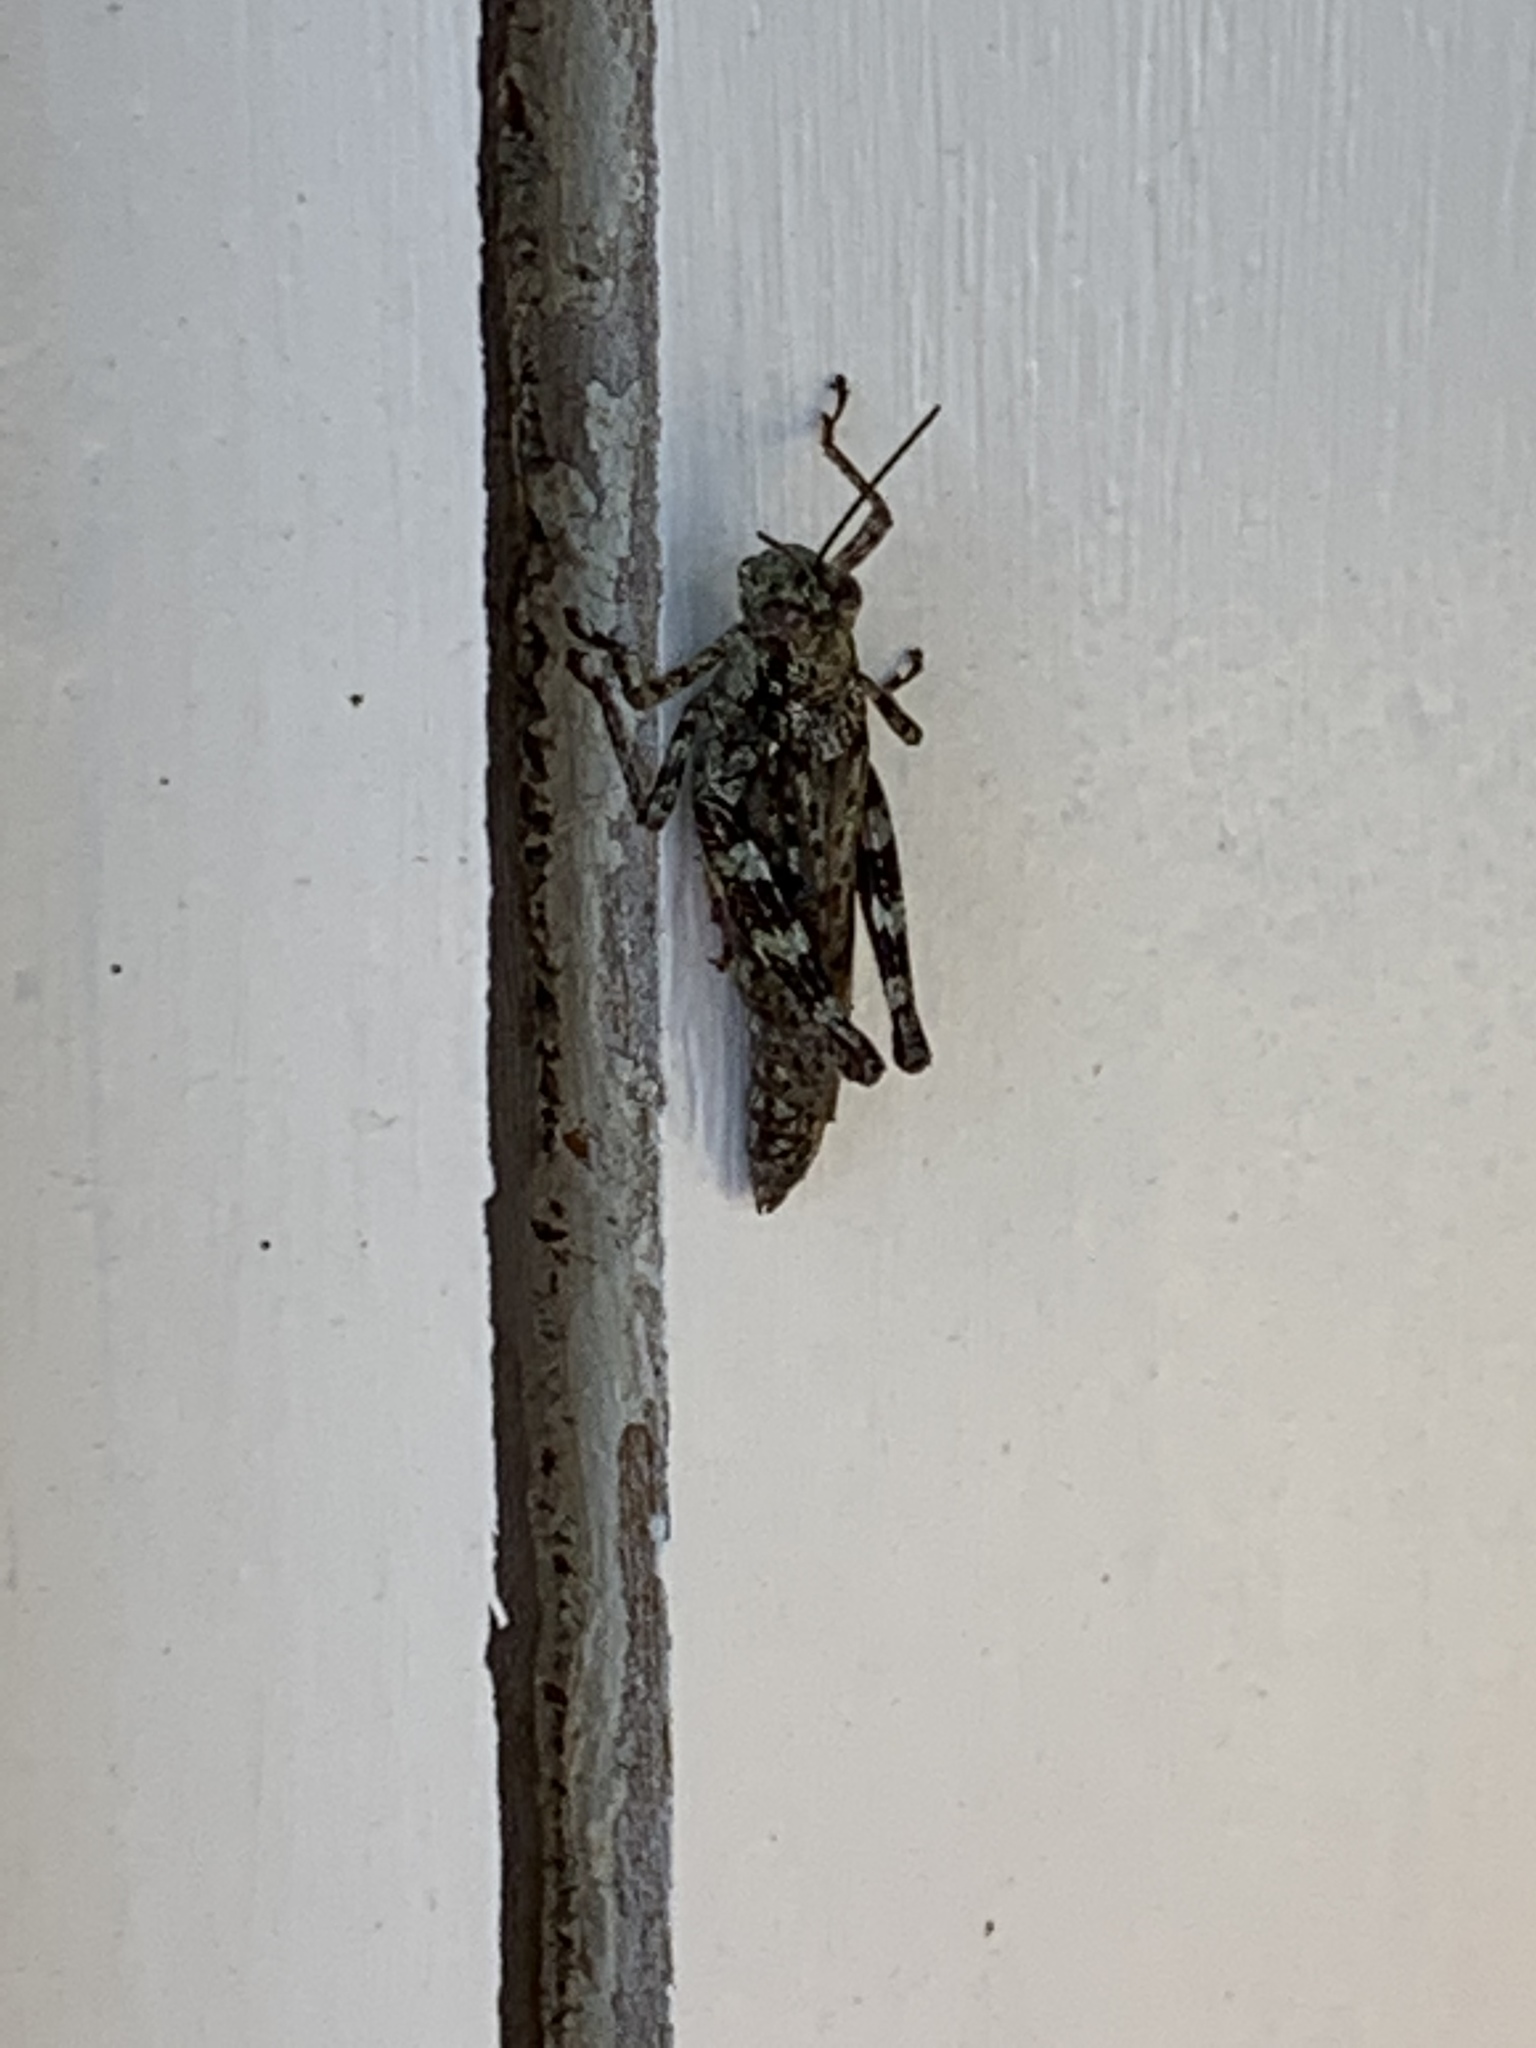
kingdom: Animalia
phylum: Arthropoda
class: Insecta
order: Orthoptera
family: Acrididae
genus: Melanoplus
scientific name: Melanoplus punctulatus
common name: Pine-tree spur-throat grasshopper
